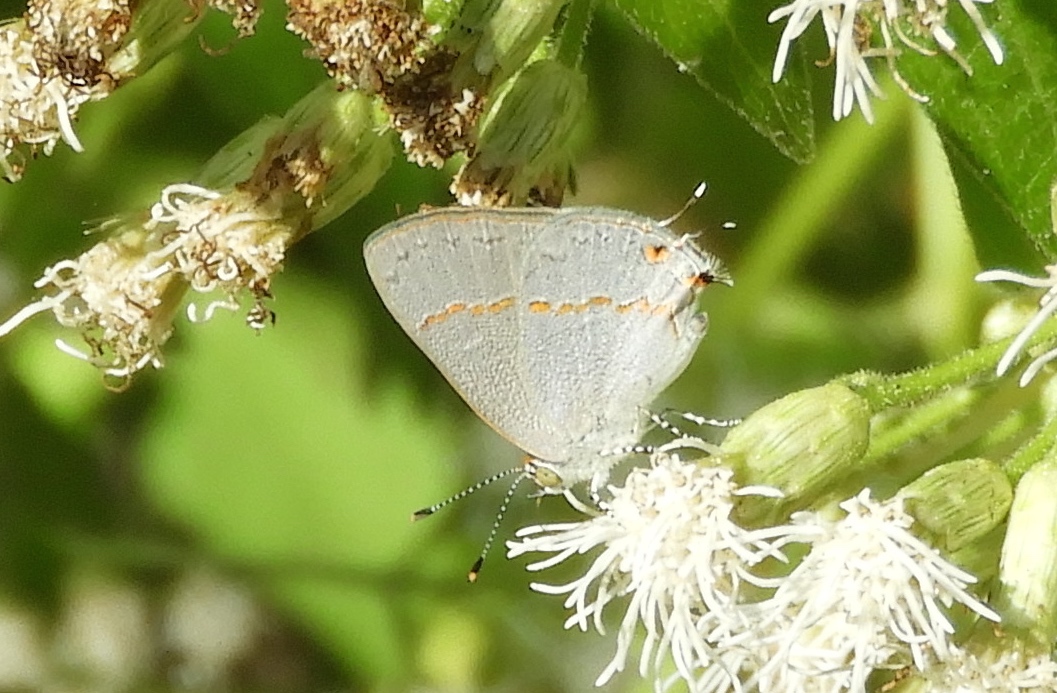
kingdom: Animalia
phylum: Arthropoda
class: Insecta
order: Lepidoptera
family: Lycaenidae
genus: Ministrymon
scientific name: Ministrymon janevicroy
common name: Pebbly ministreak
